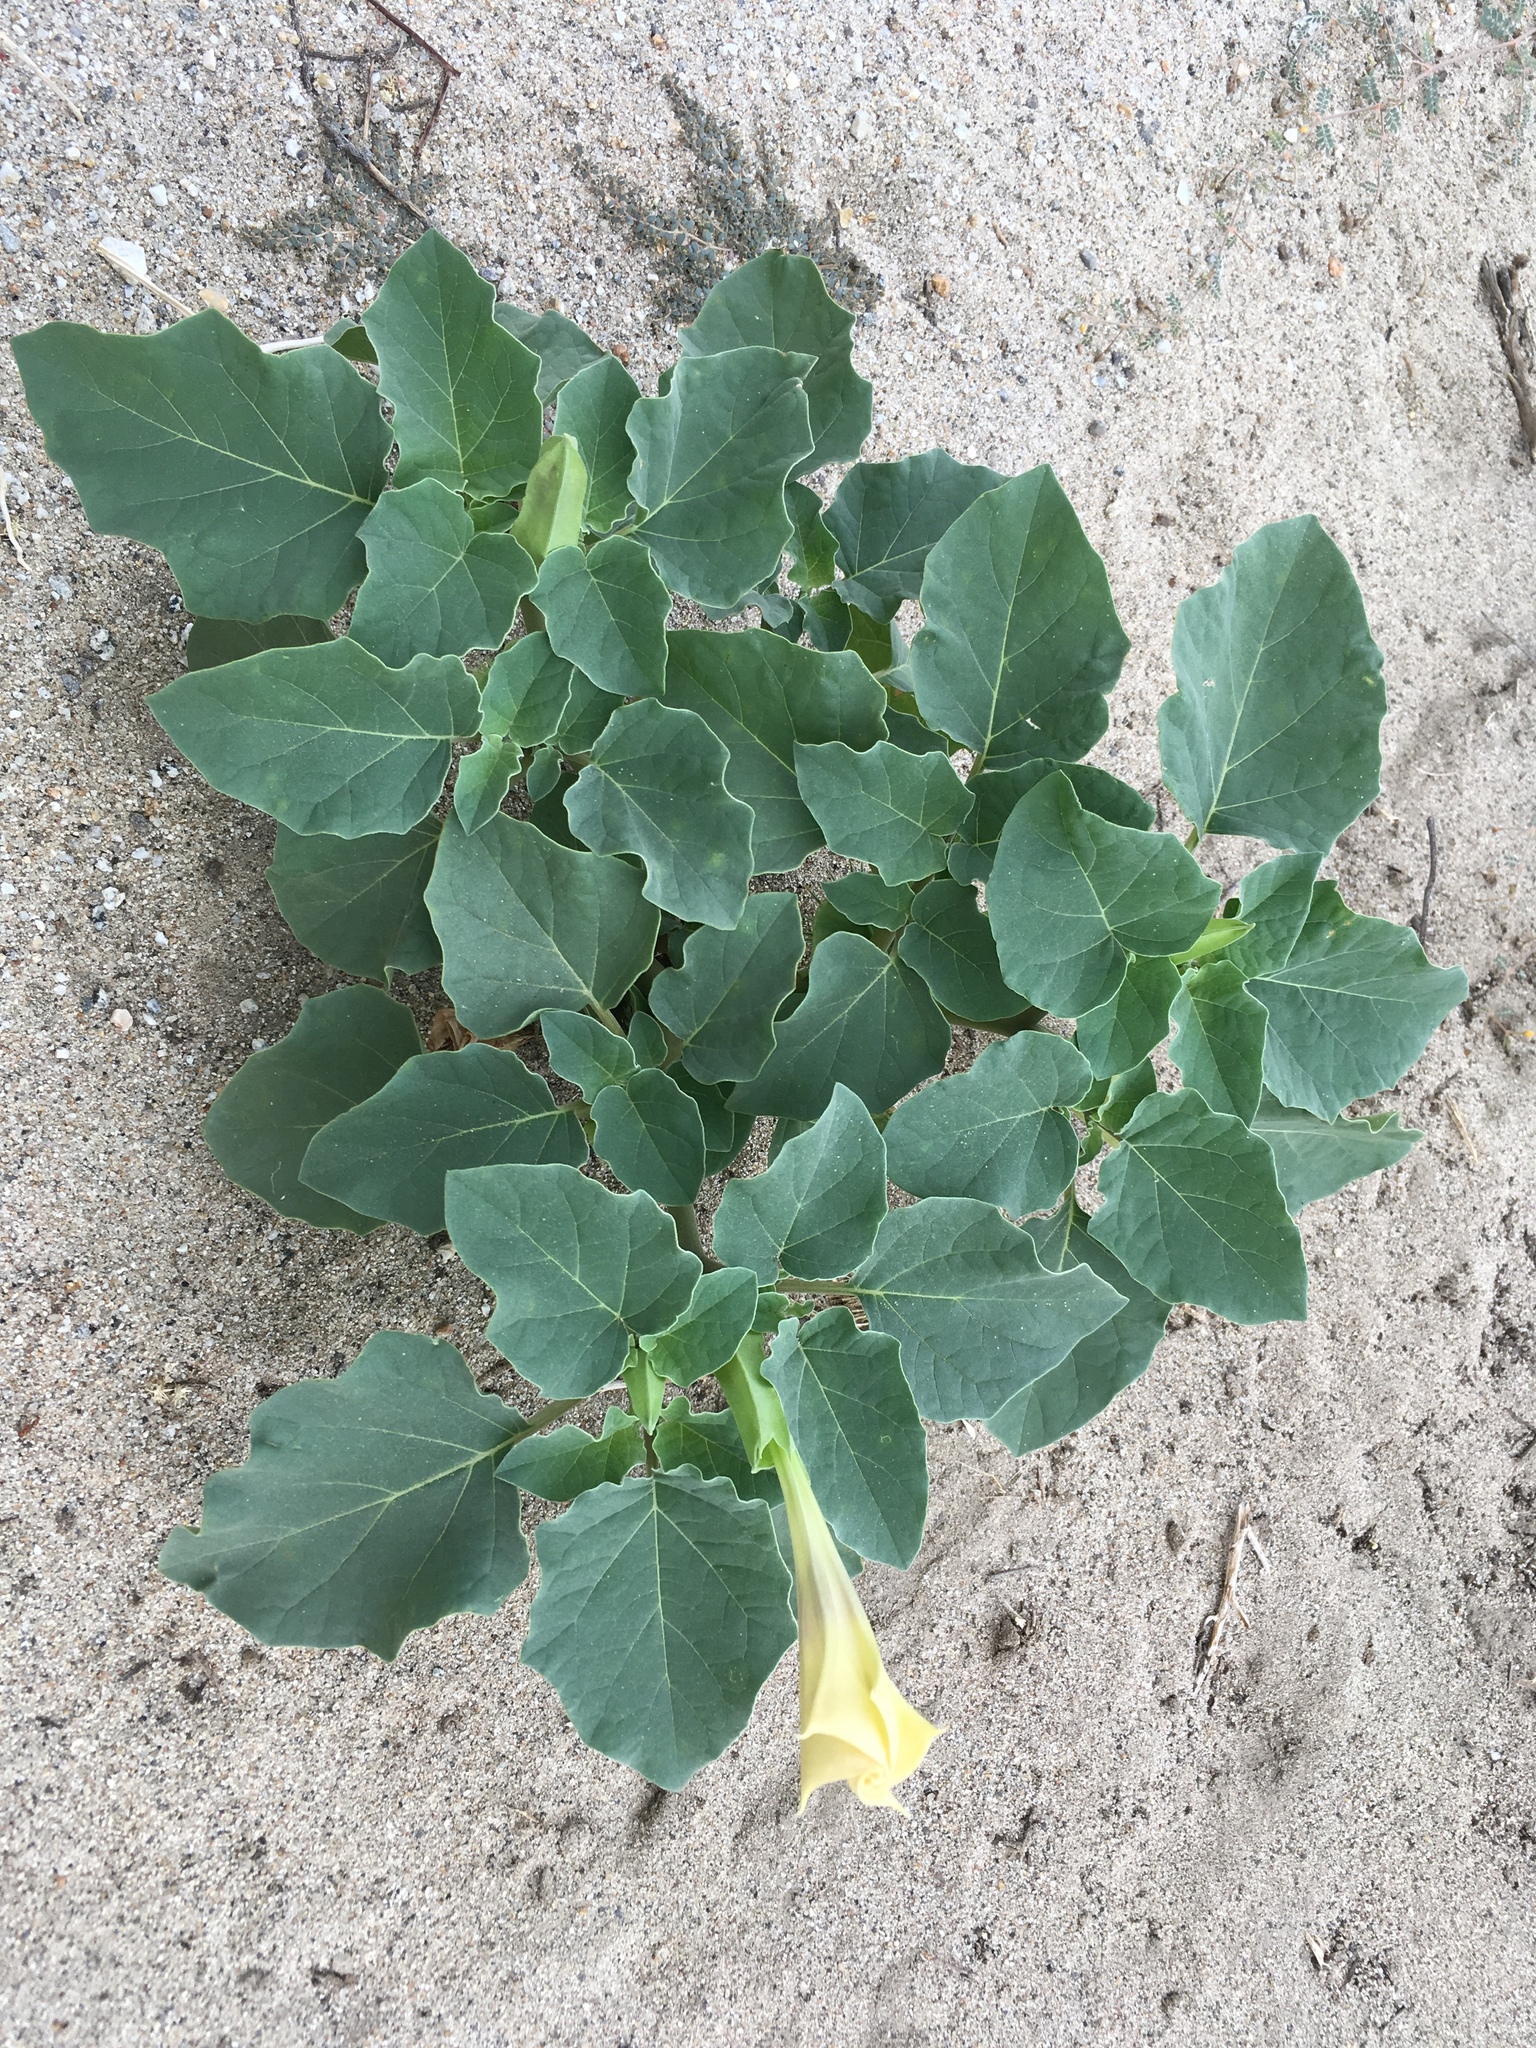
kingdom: Plantae
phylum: Tracheophyta
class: Magnoliopsida
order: Solanales
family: Solanaceae
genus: Datura
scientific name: Datura discolor
